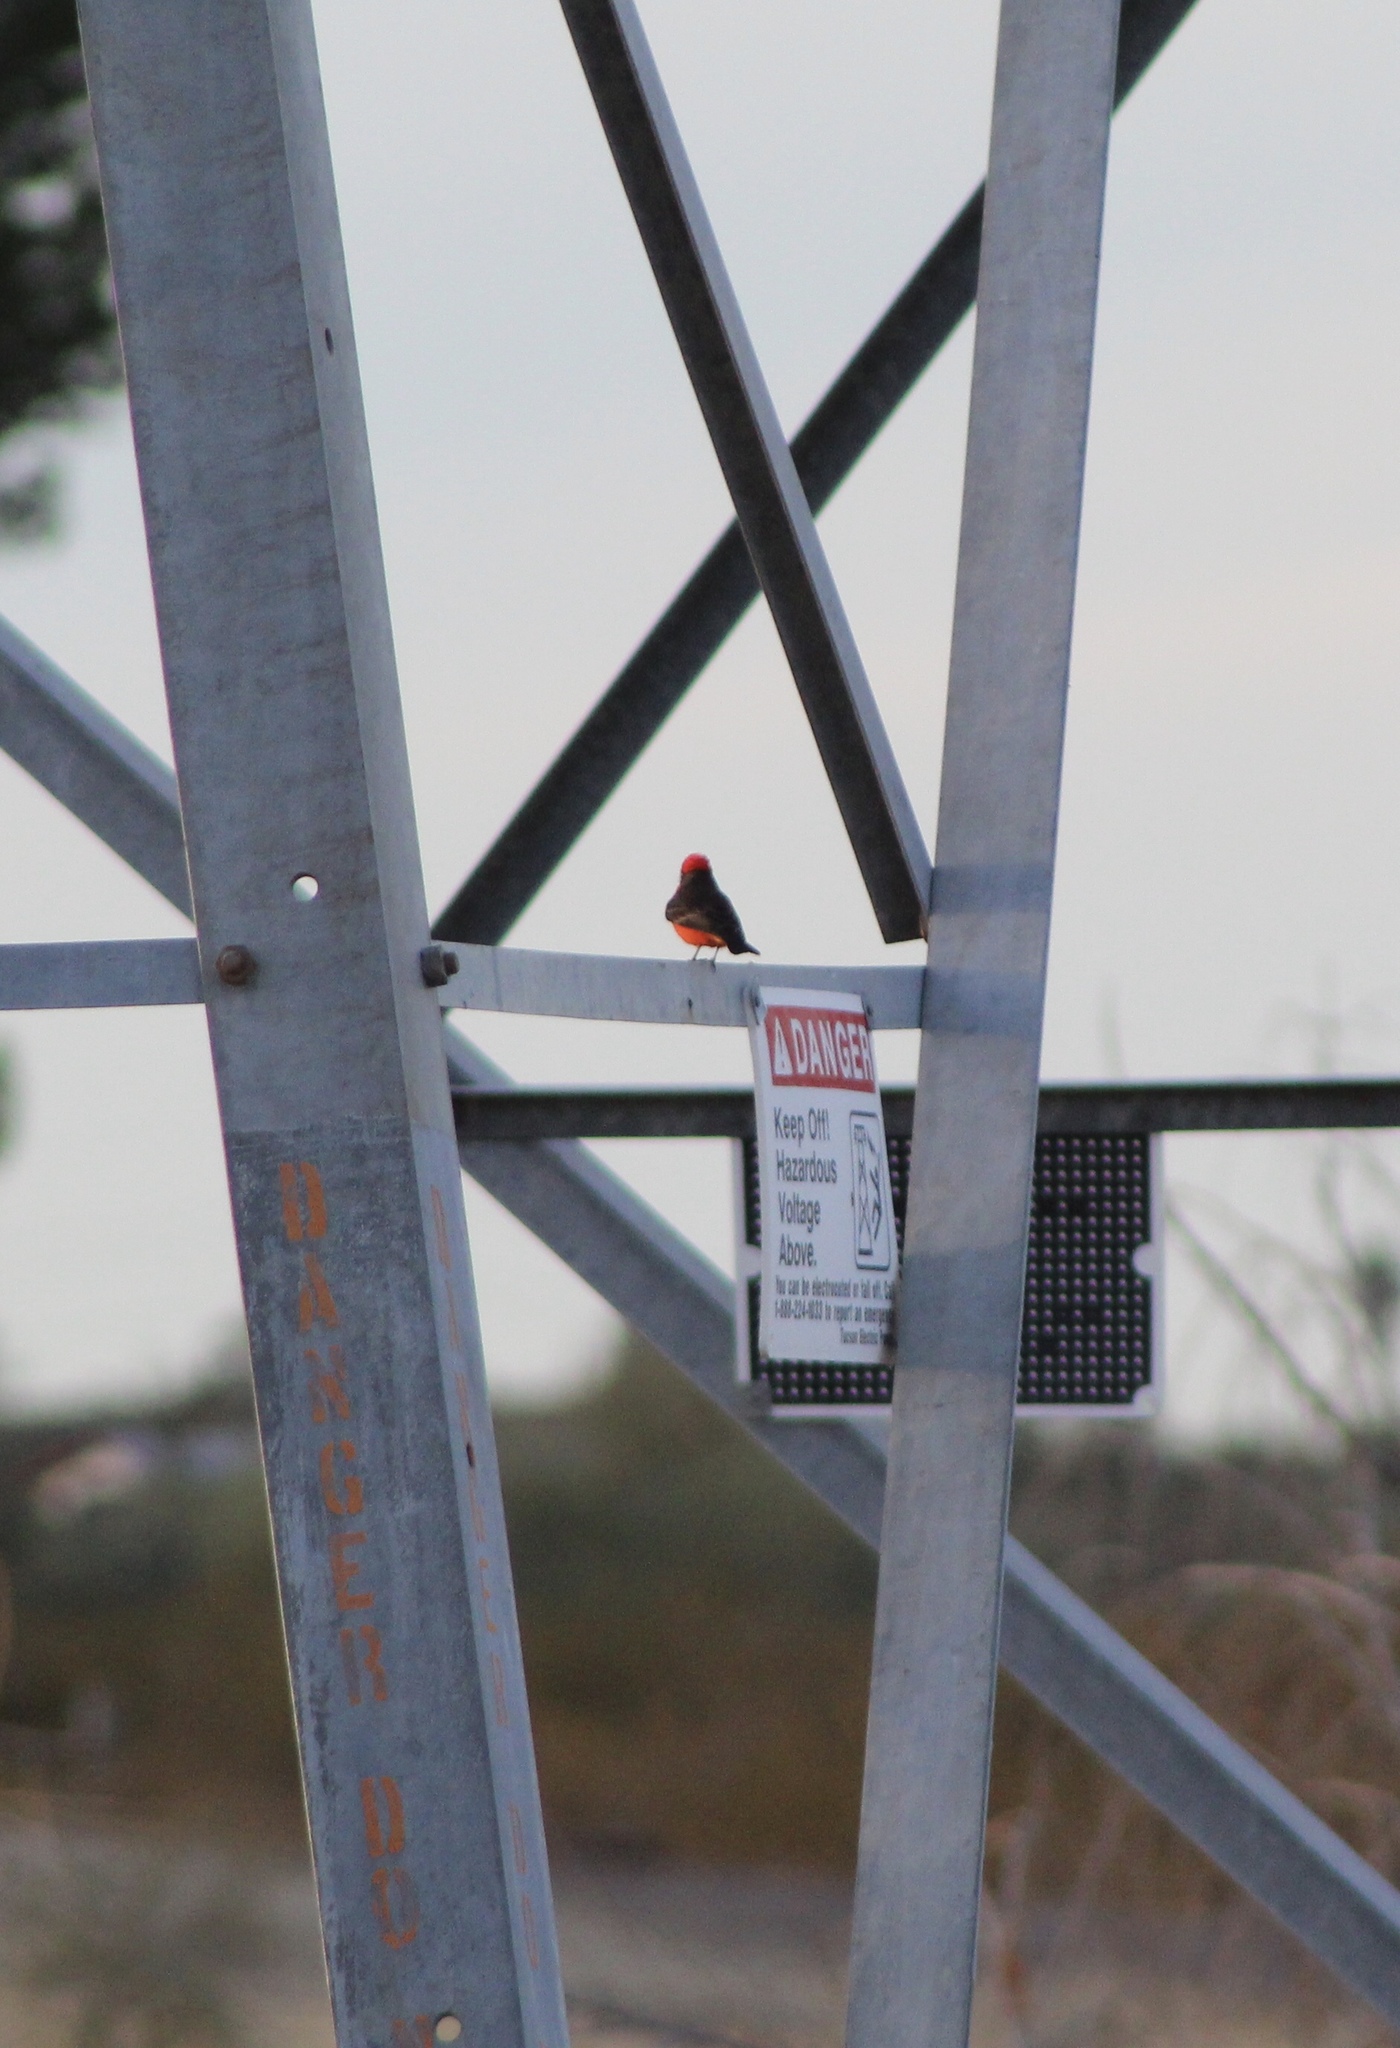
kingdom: Animalia
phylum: Chordata
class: Aves
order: Passeriformes
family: Tyrannidae
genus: Pyrocephalus
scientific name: Pyrocephalus rubinus
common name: Vermilion flycatcher
